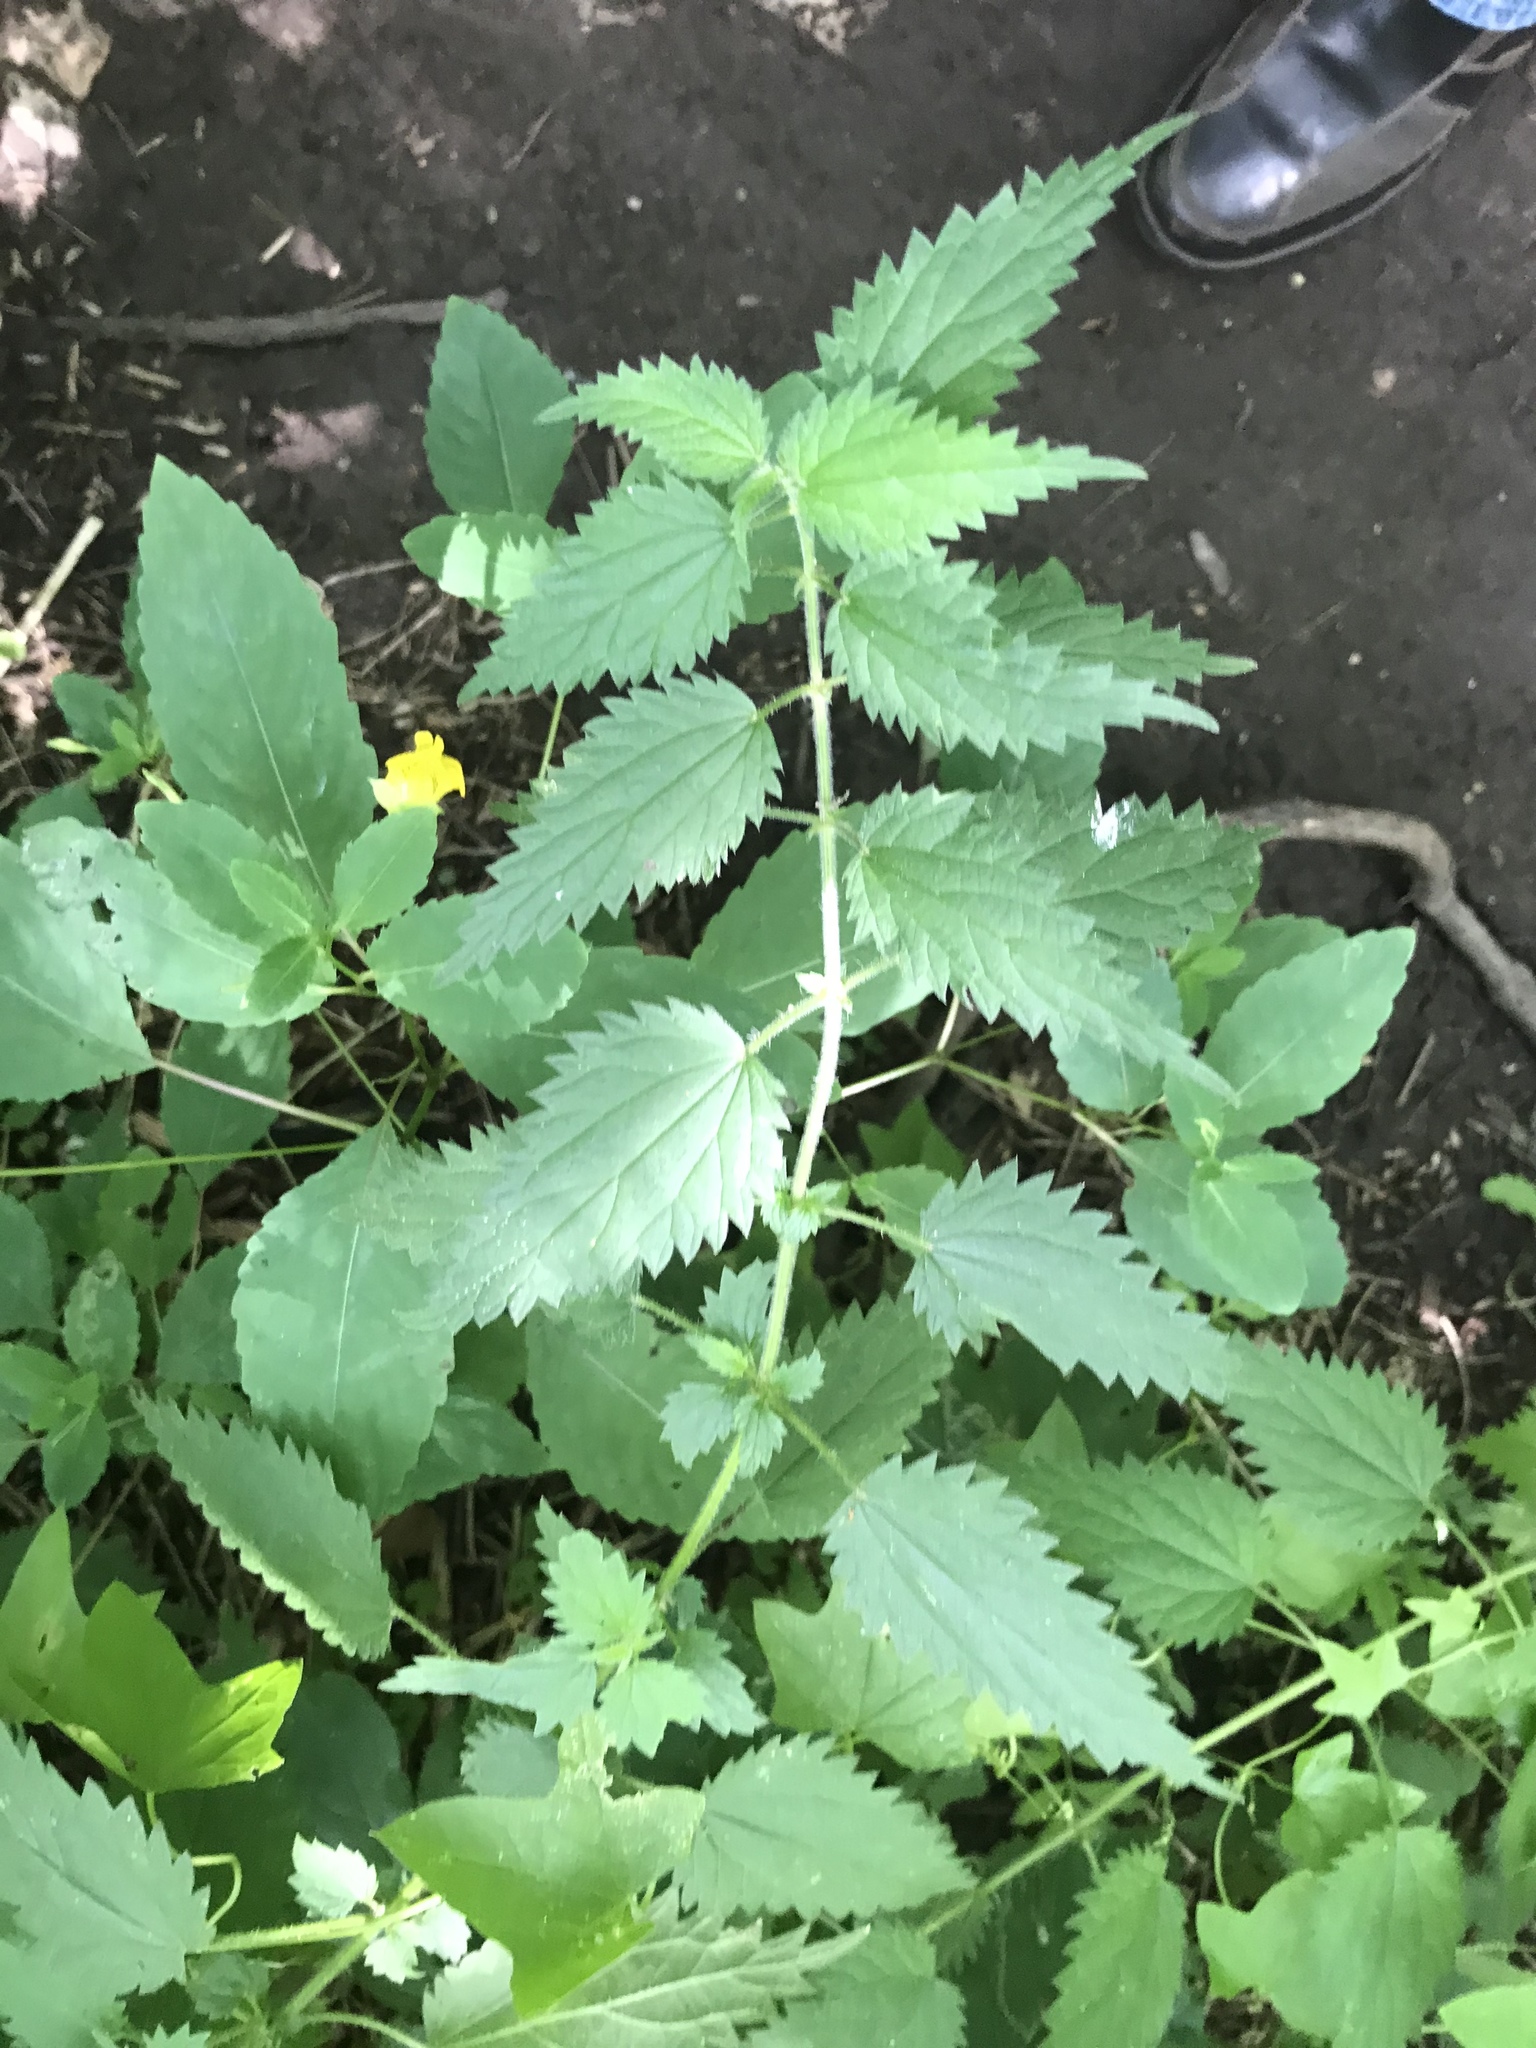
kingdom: Plantae
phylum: Tracheophyta
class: Magnoliopsida
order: Rosales
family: Urticaceae
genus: Urtica
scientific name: Urtica dioica
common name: Common nettle
